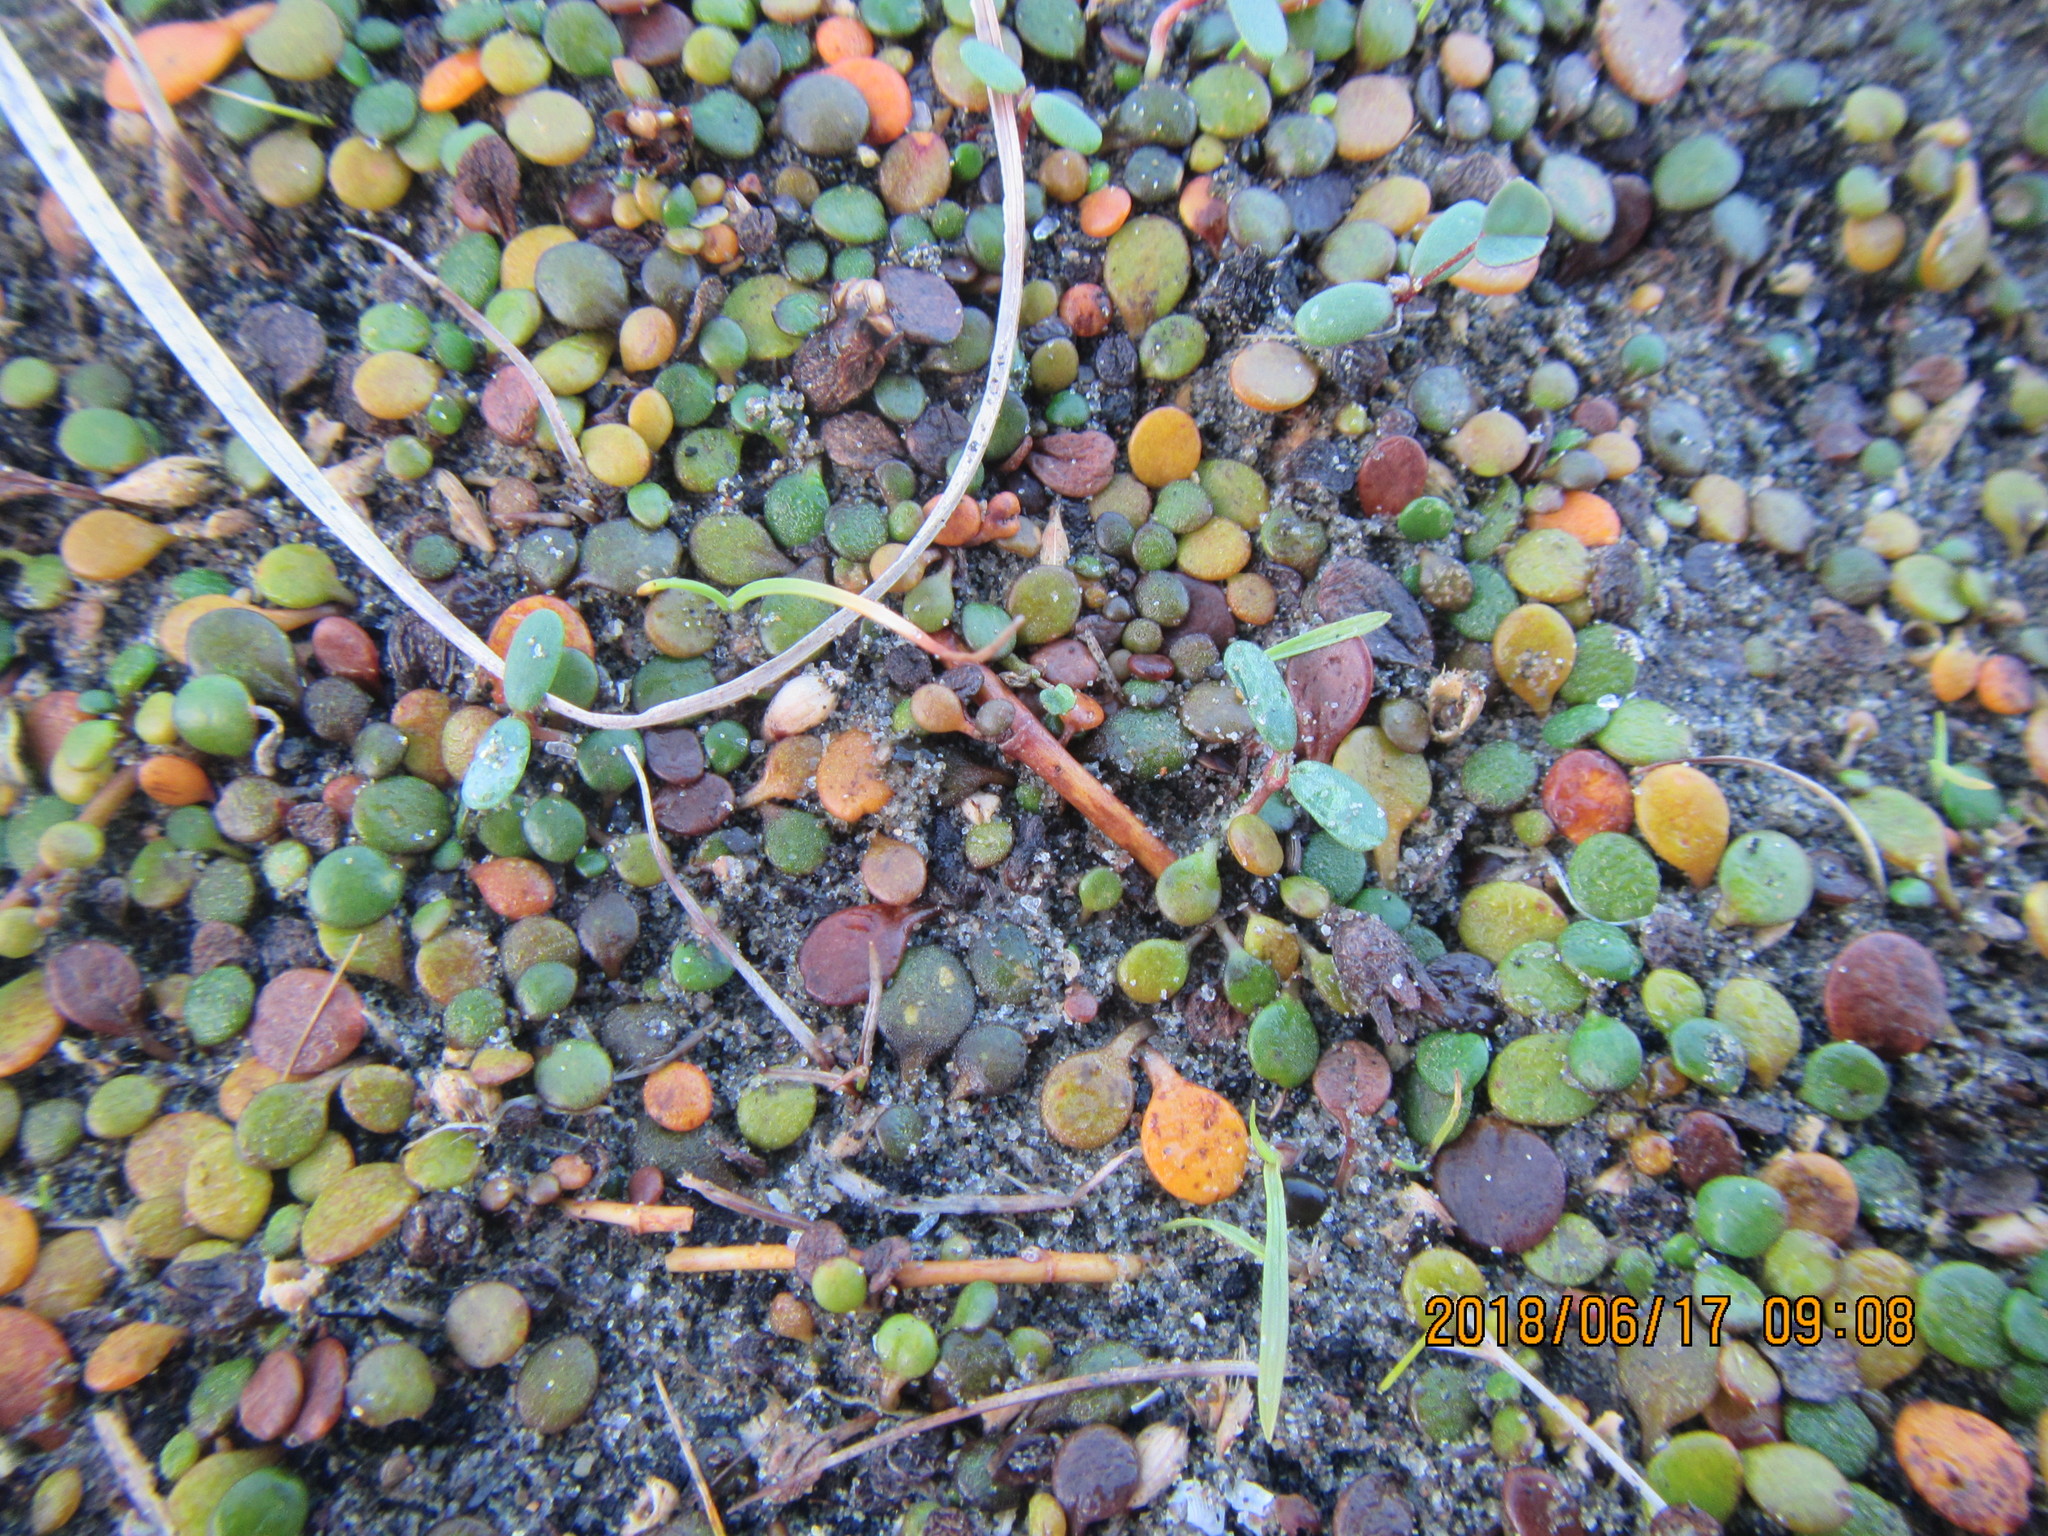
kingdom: Plantae
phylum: Tracheophyta
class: Magnoliopsida
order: Asterales
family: Goodeniaceae
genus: Goodenia
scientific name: Goodenia heenanii
